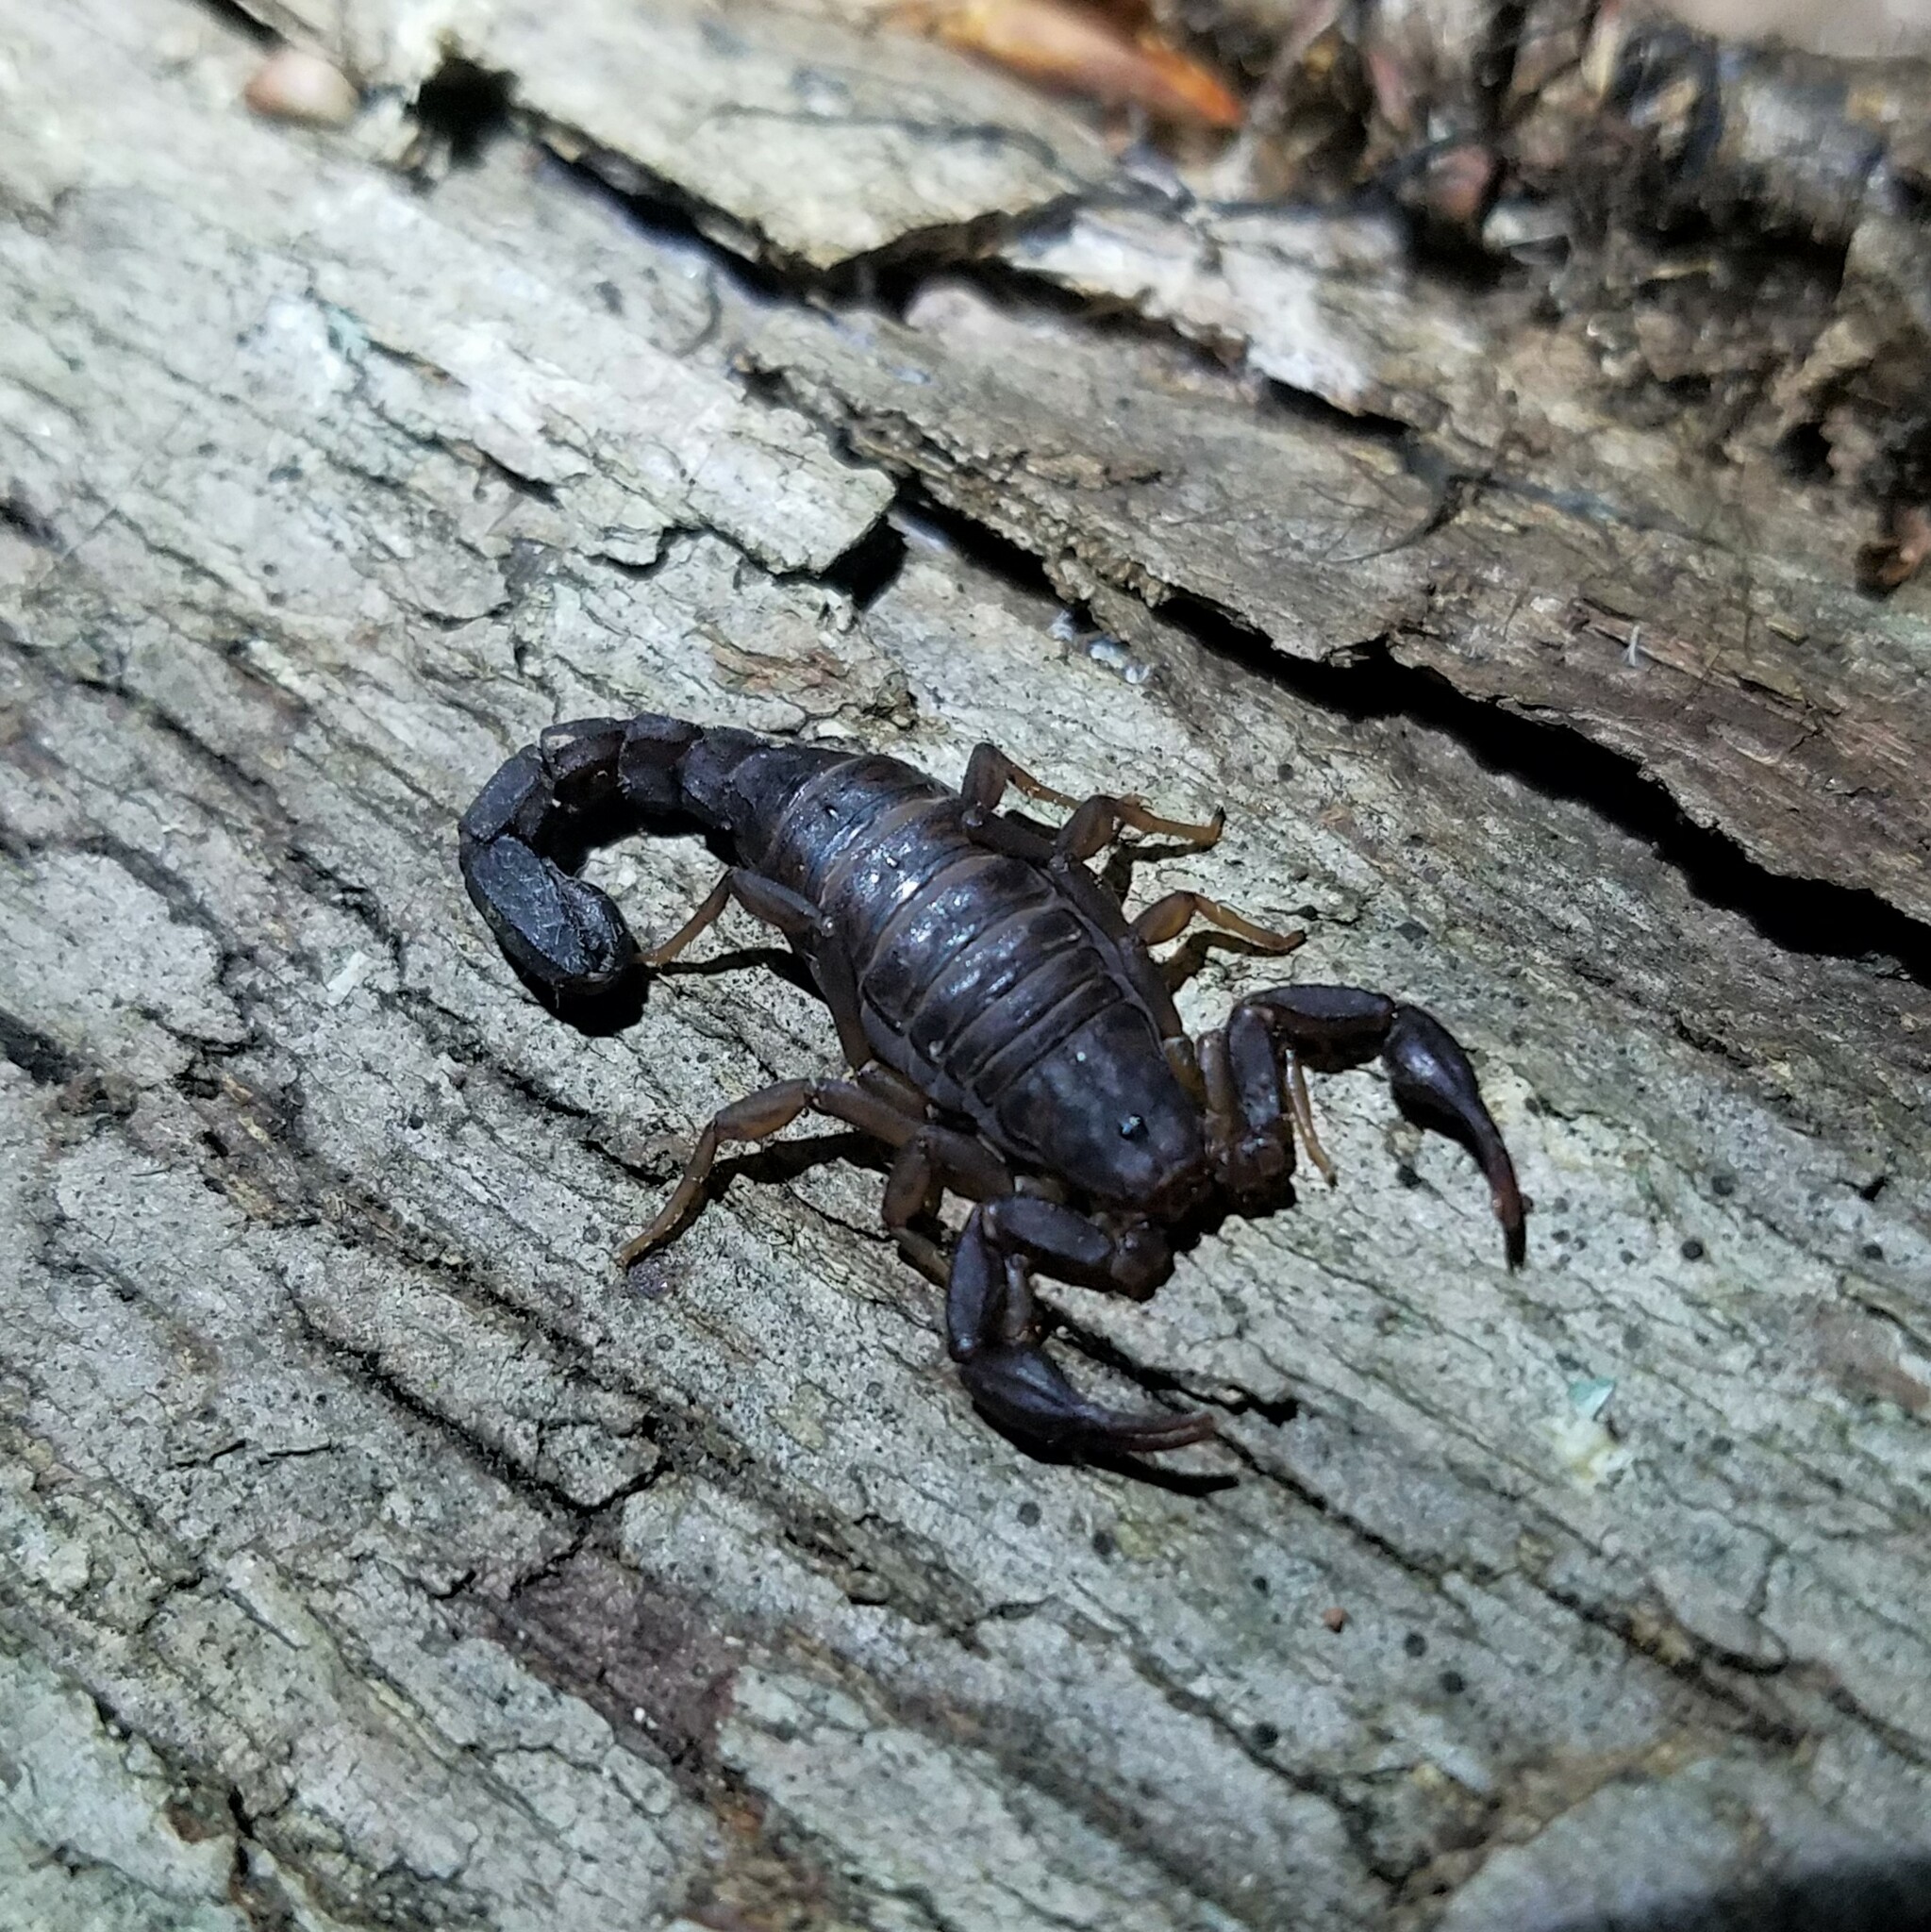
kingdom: Animalia
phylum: Arthropoda
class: Arachnida
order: Scorpiones
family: Vaejovidae
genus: Vaejovis
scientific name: Vaejovis carolinianus
